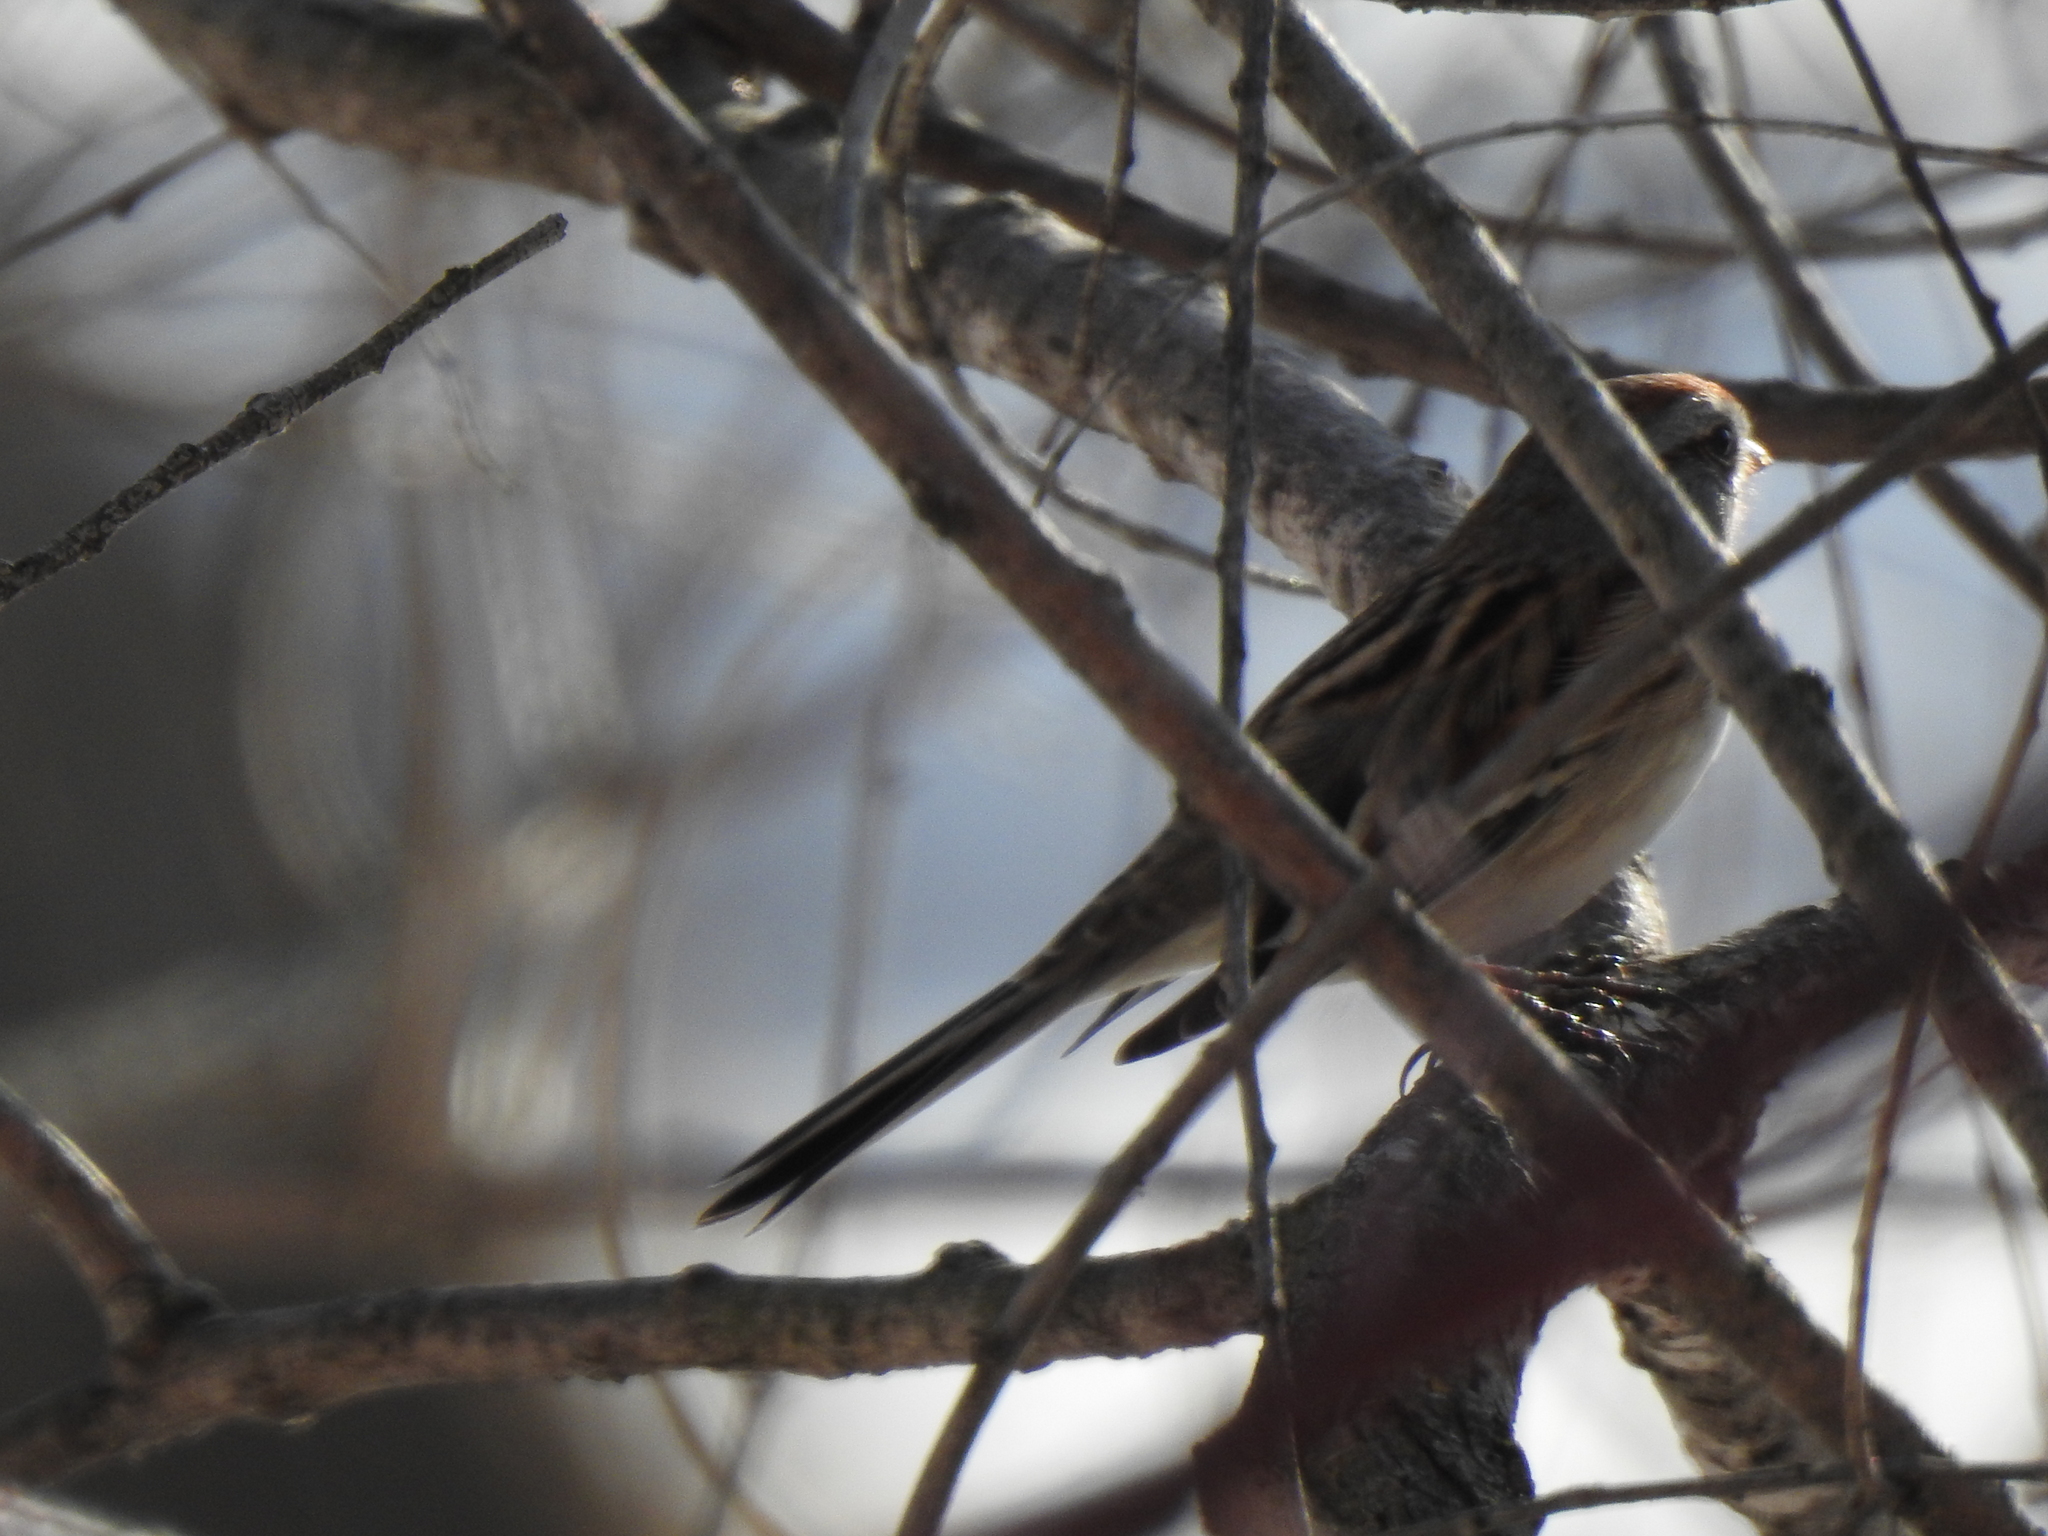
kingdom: Animalia
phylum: Chordata
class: Aves
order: Passeriformes
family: Passerellidae
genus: Spizelloides
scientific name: Spizelloides arborea
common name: American tree sparrow
